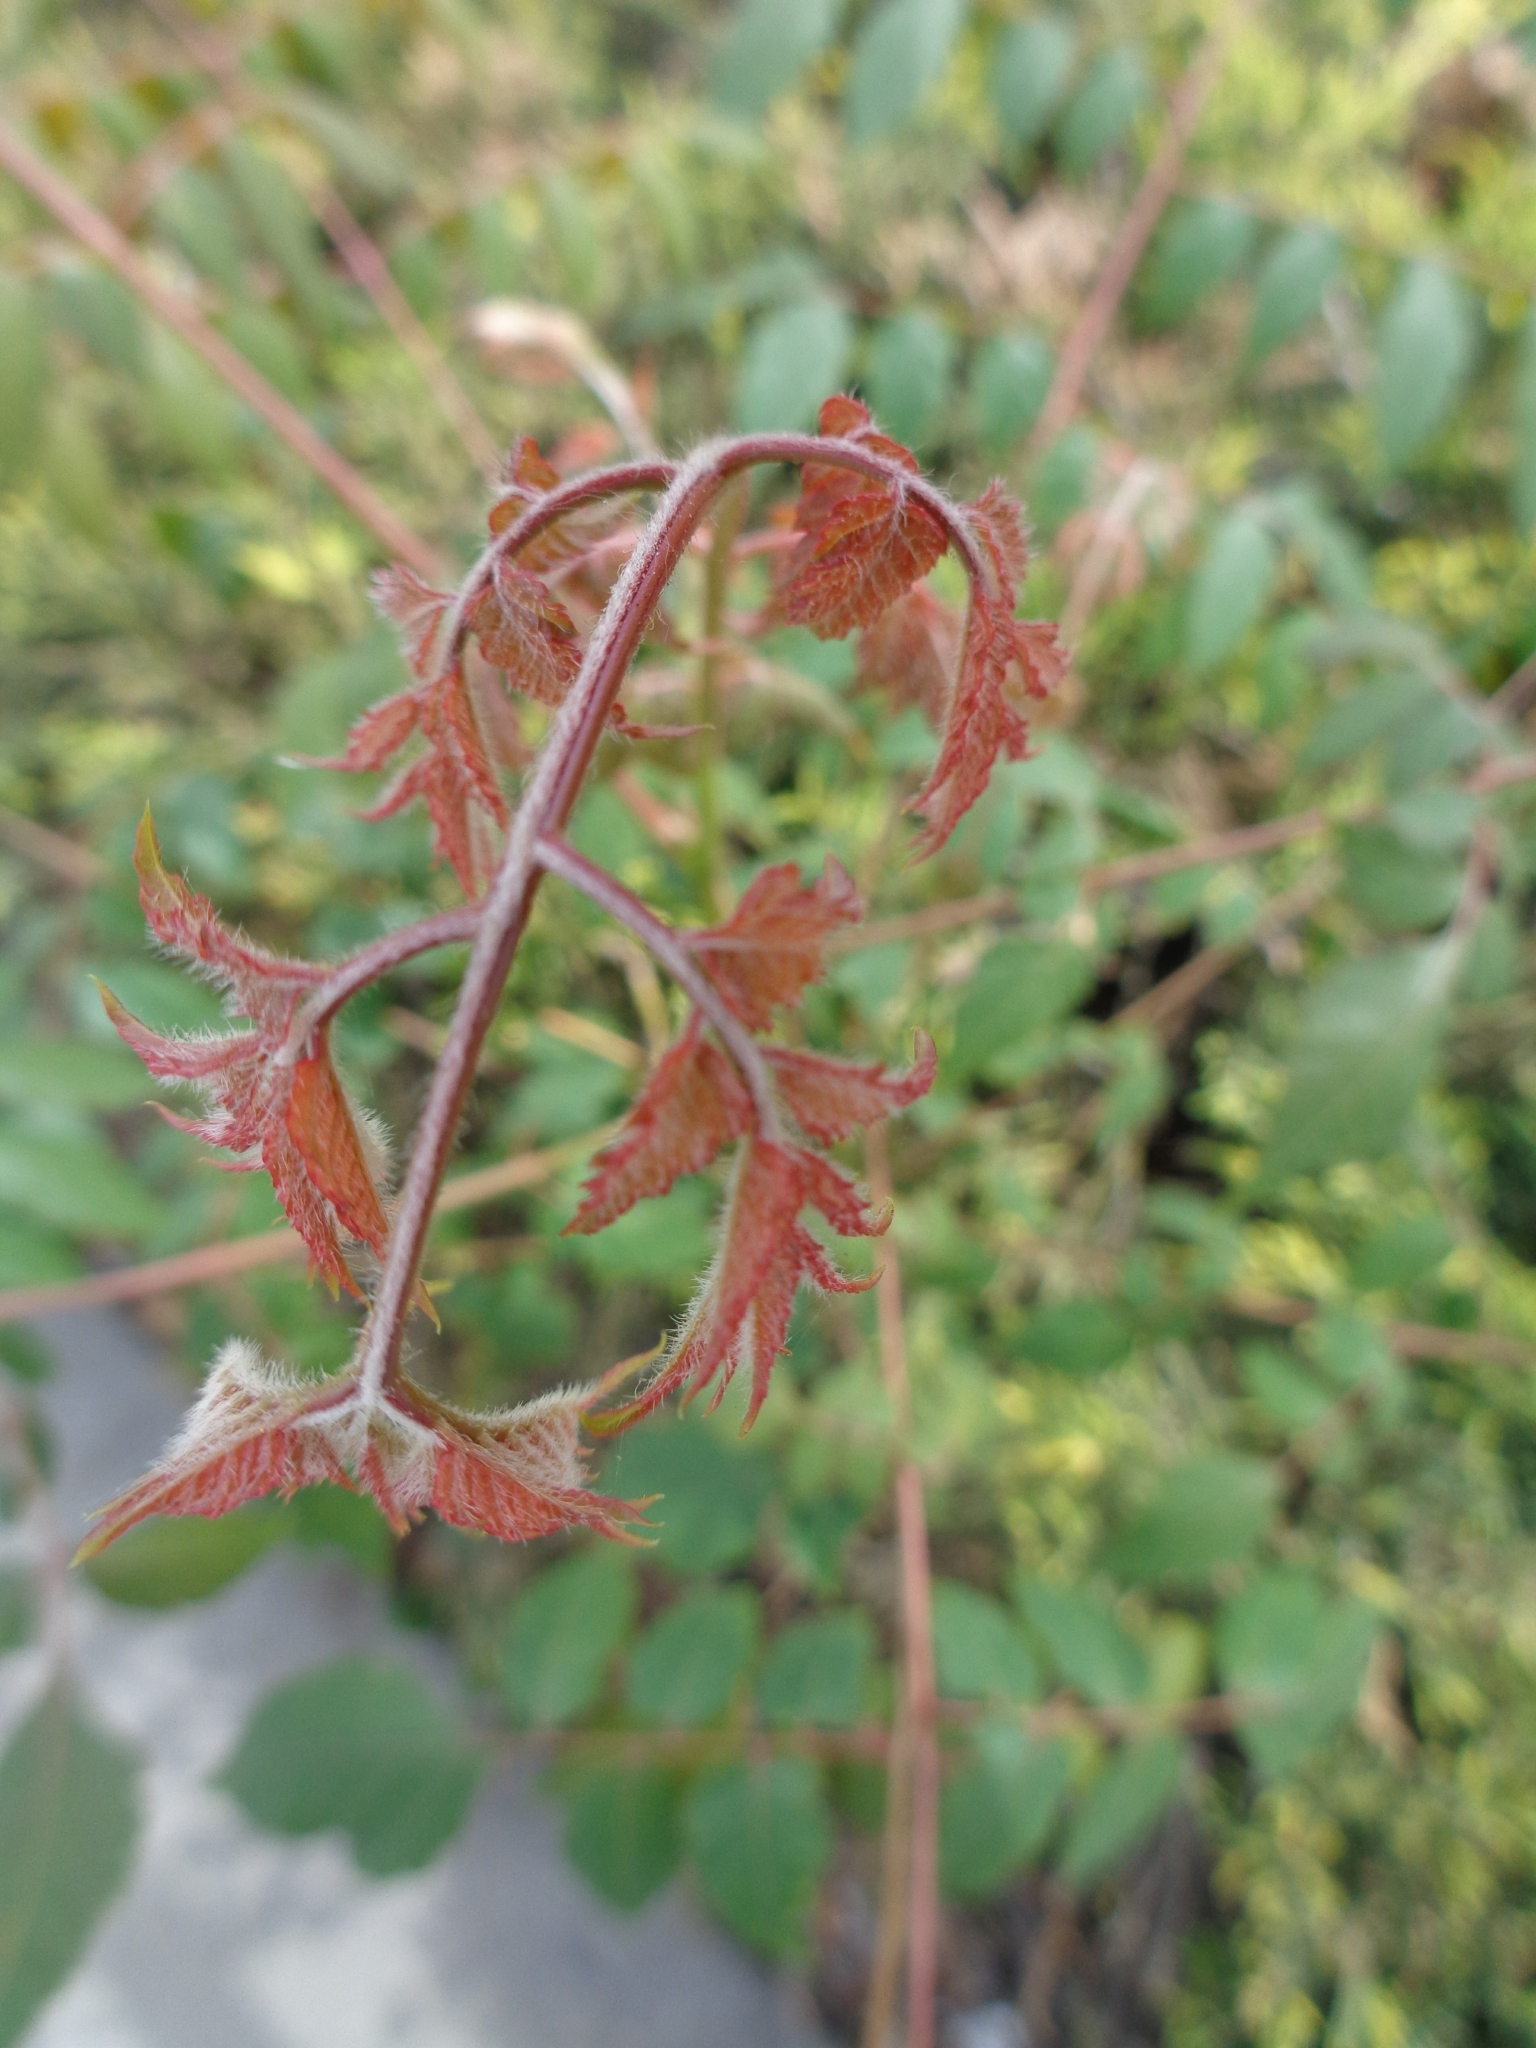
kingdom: Plantae
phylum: Tracheophyta
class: Magnoliopsida
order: Sapindales
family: Sapindaceae
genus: Koelreuteria
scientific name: Koelreuteria bipinnata
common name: Goldenrain tree
